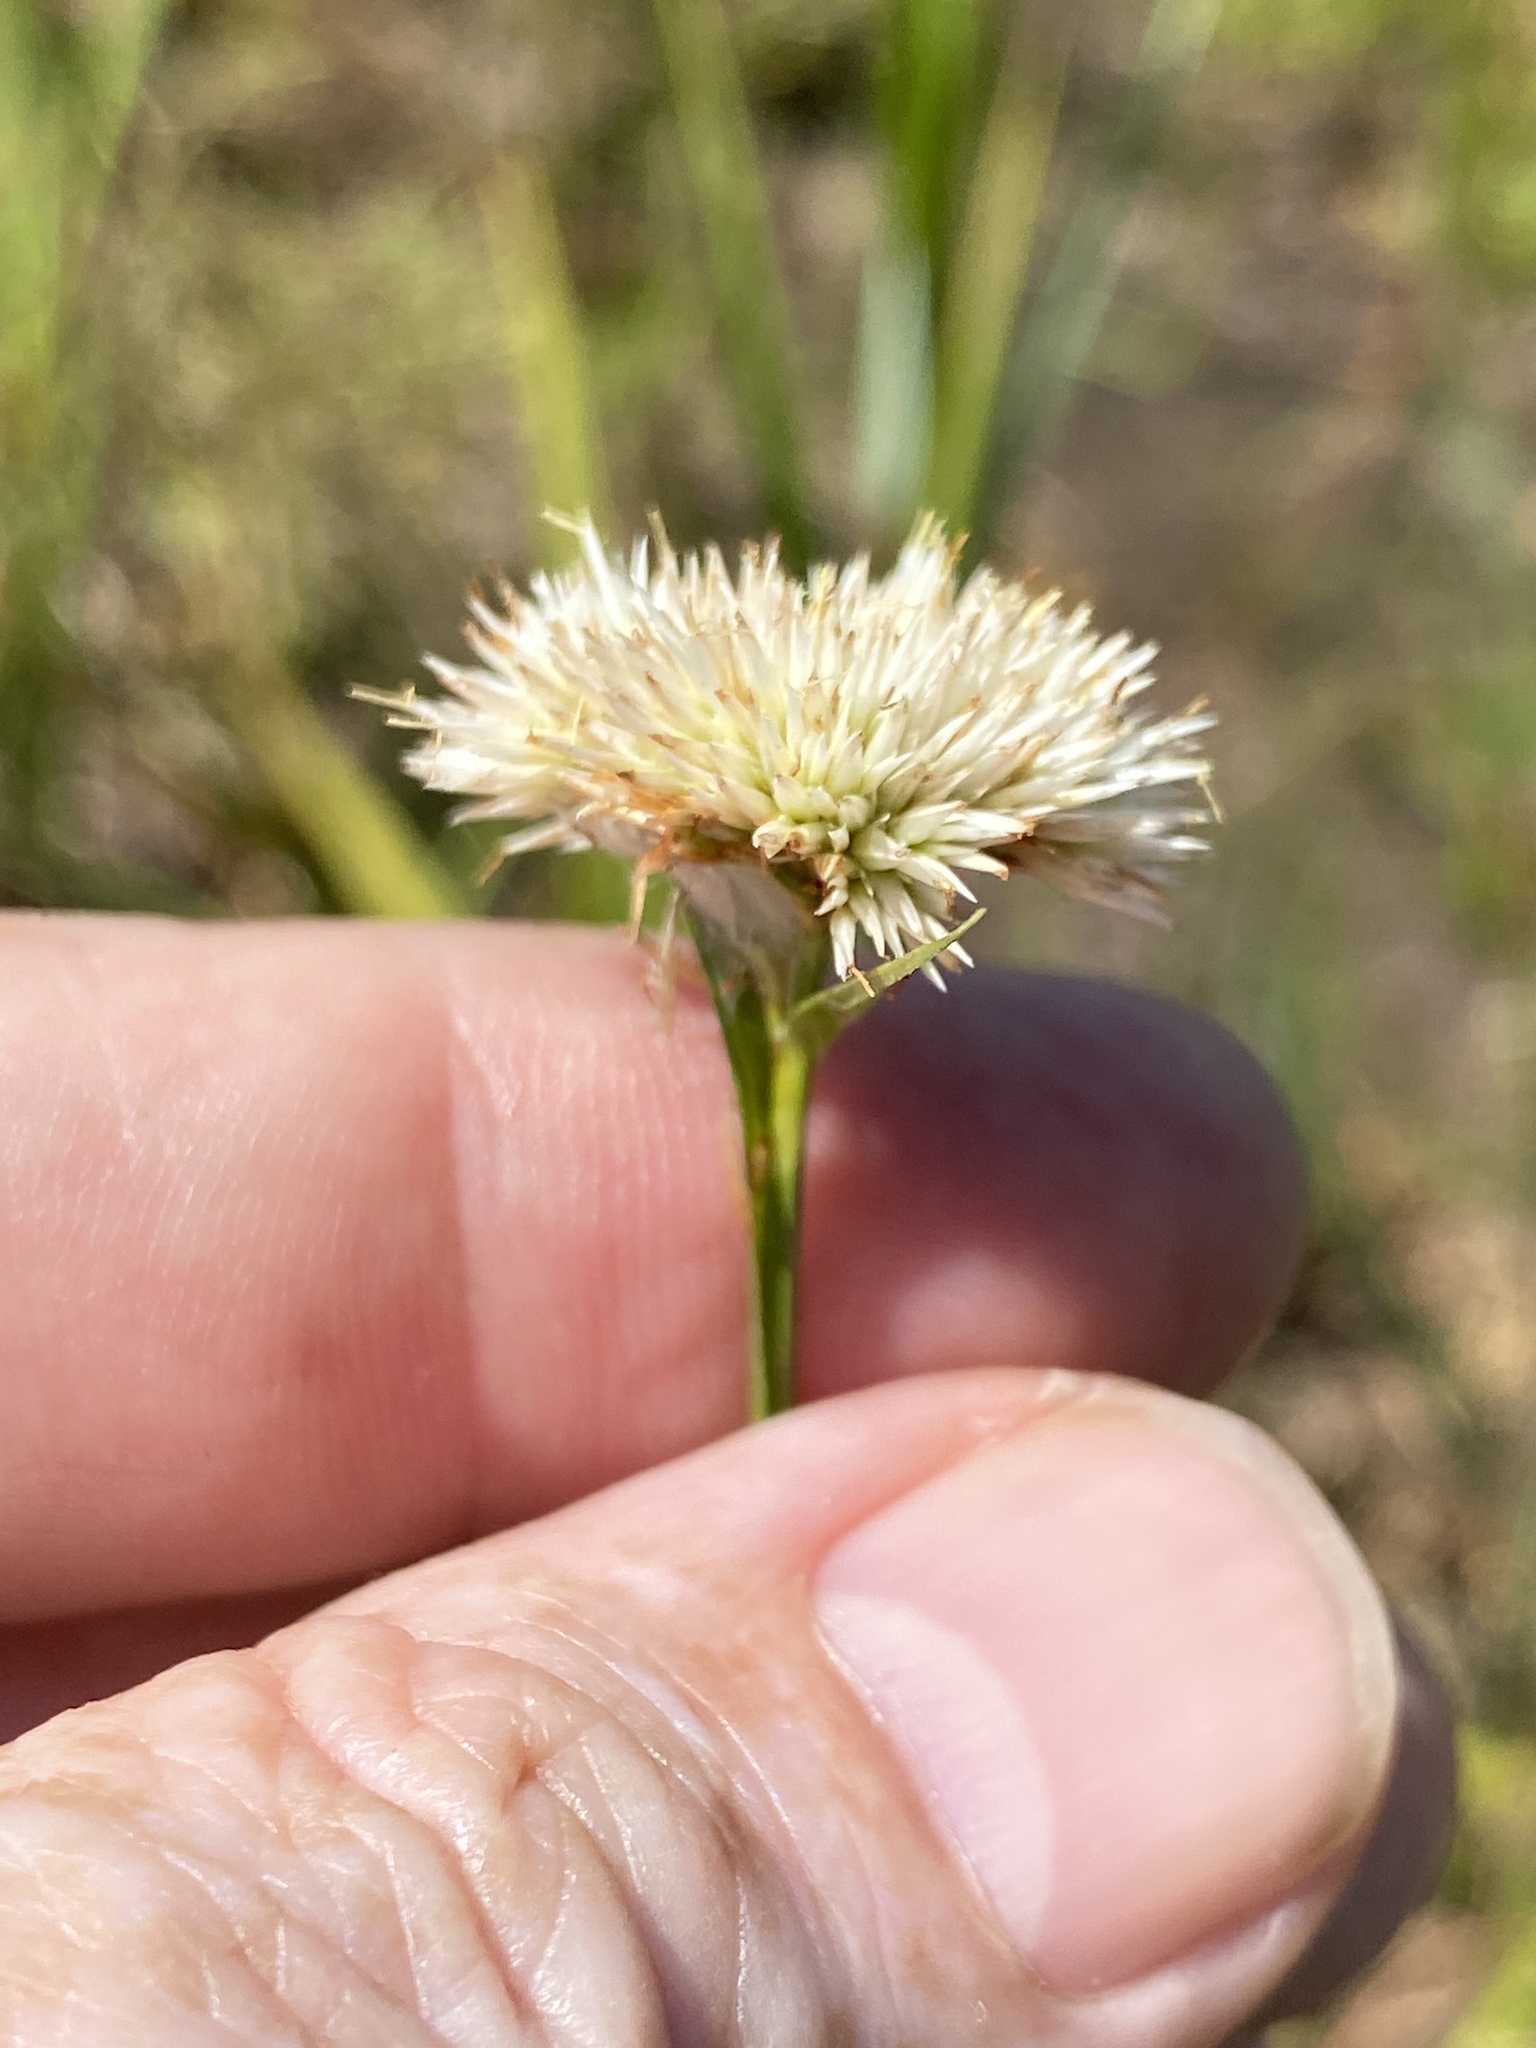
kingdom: Plantae
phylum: Tracheophyta
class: Liliopsida
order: Poales
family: Cyperaceae
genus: Rhynchospora
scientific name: Rhynchospora pallida
